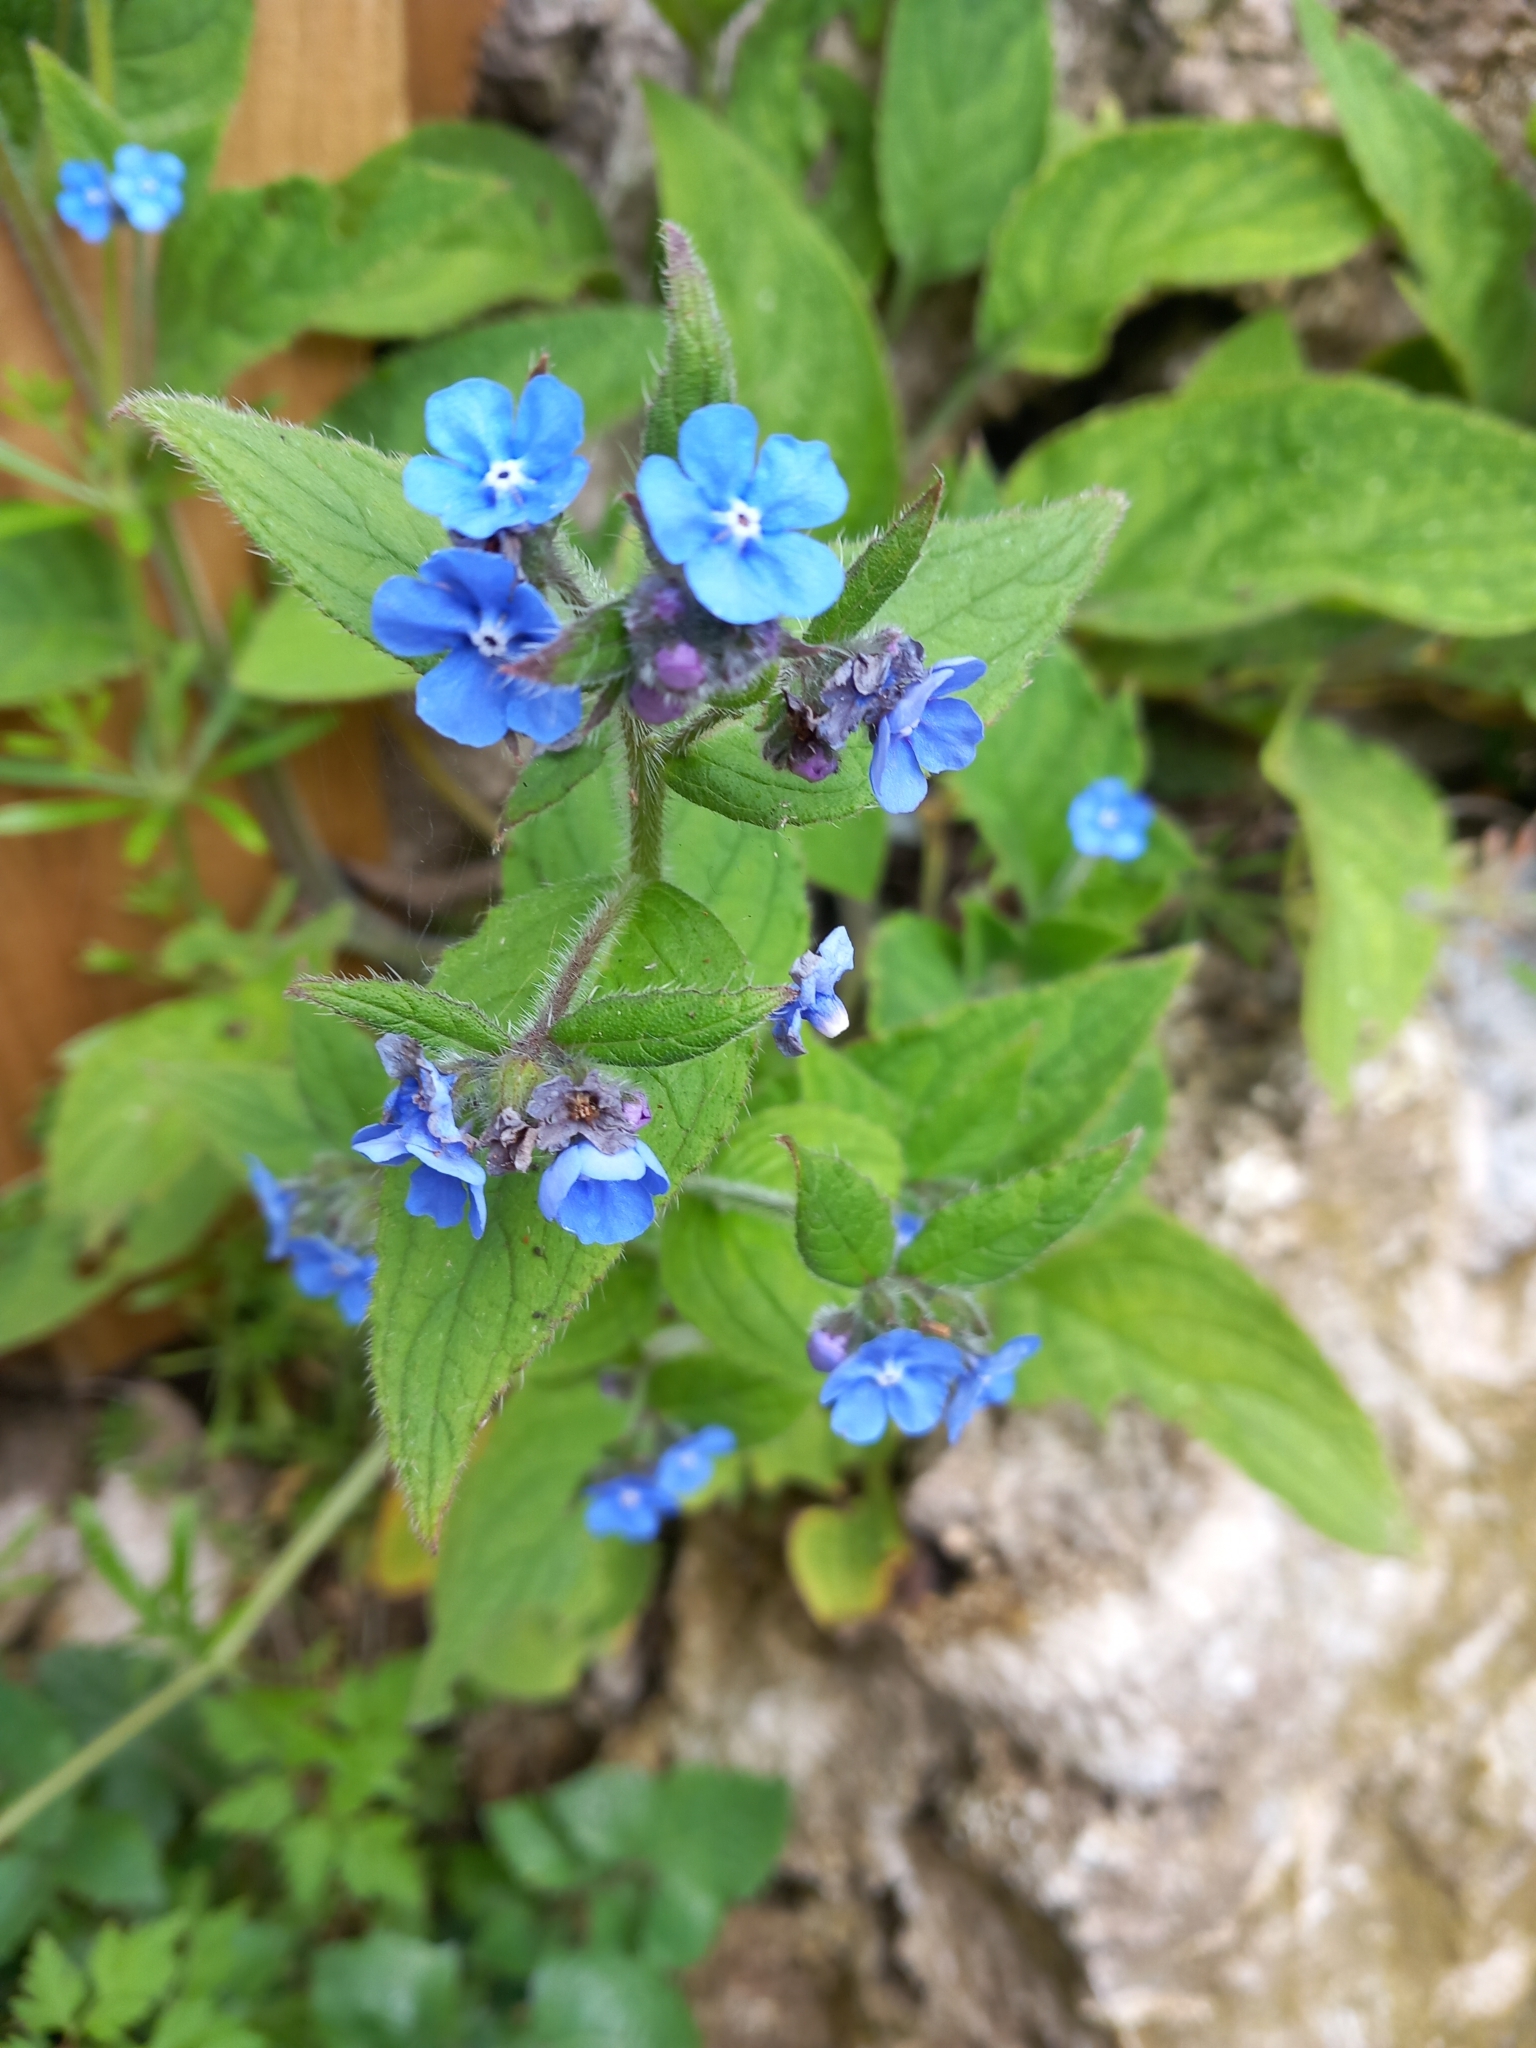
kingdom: Plantae
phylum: Tracheophyta
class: Magnoliopsida
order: Boraginales
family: Boraginaceae
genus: Pentaglottis
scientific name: Pentaglottis sempervirens
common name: Green alkanet
